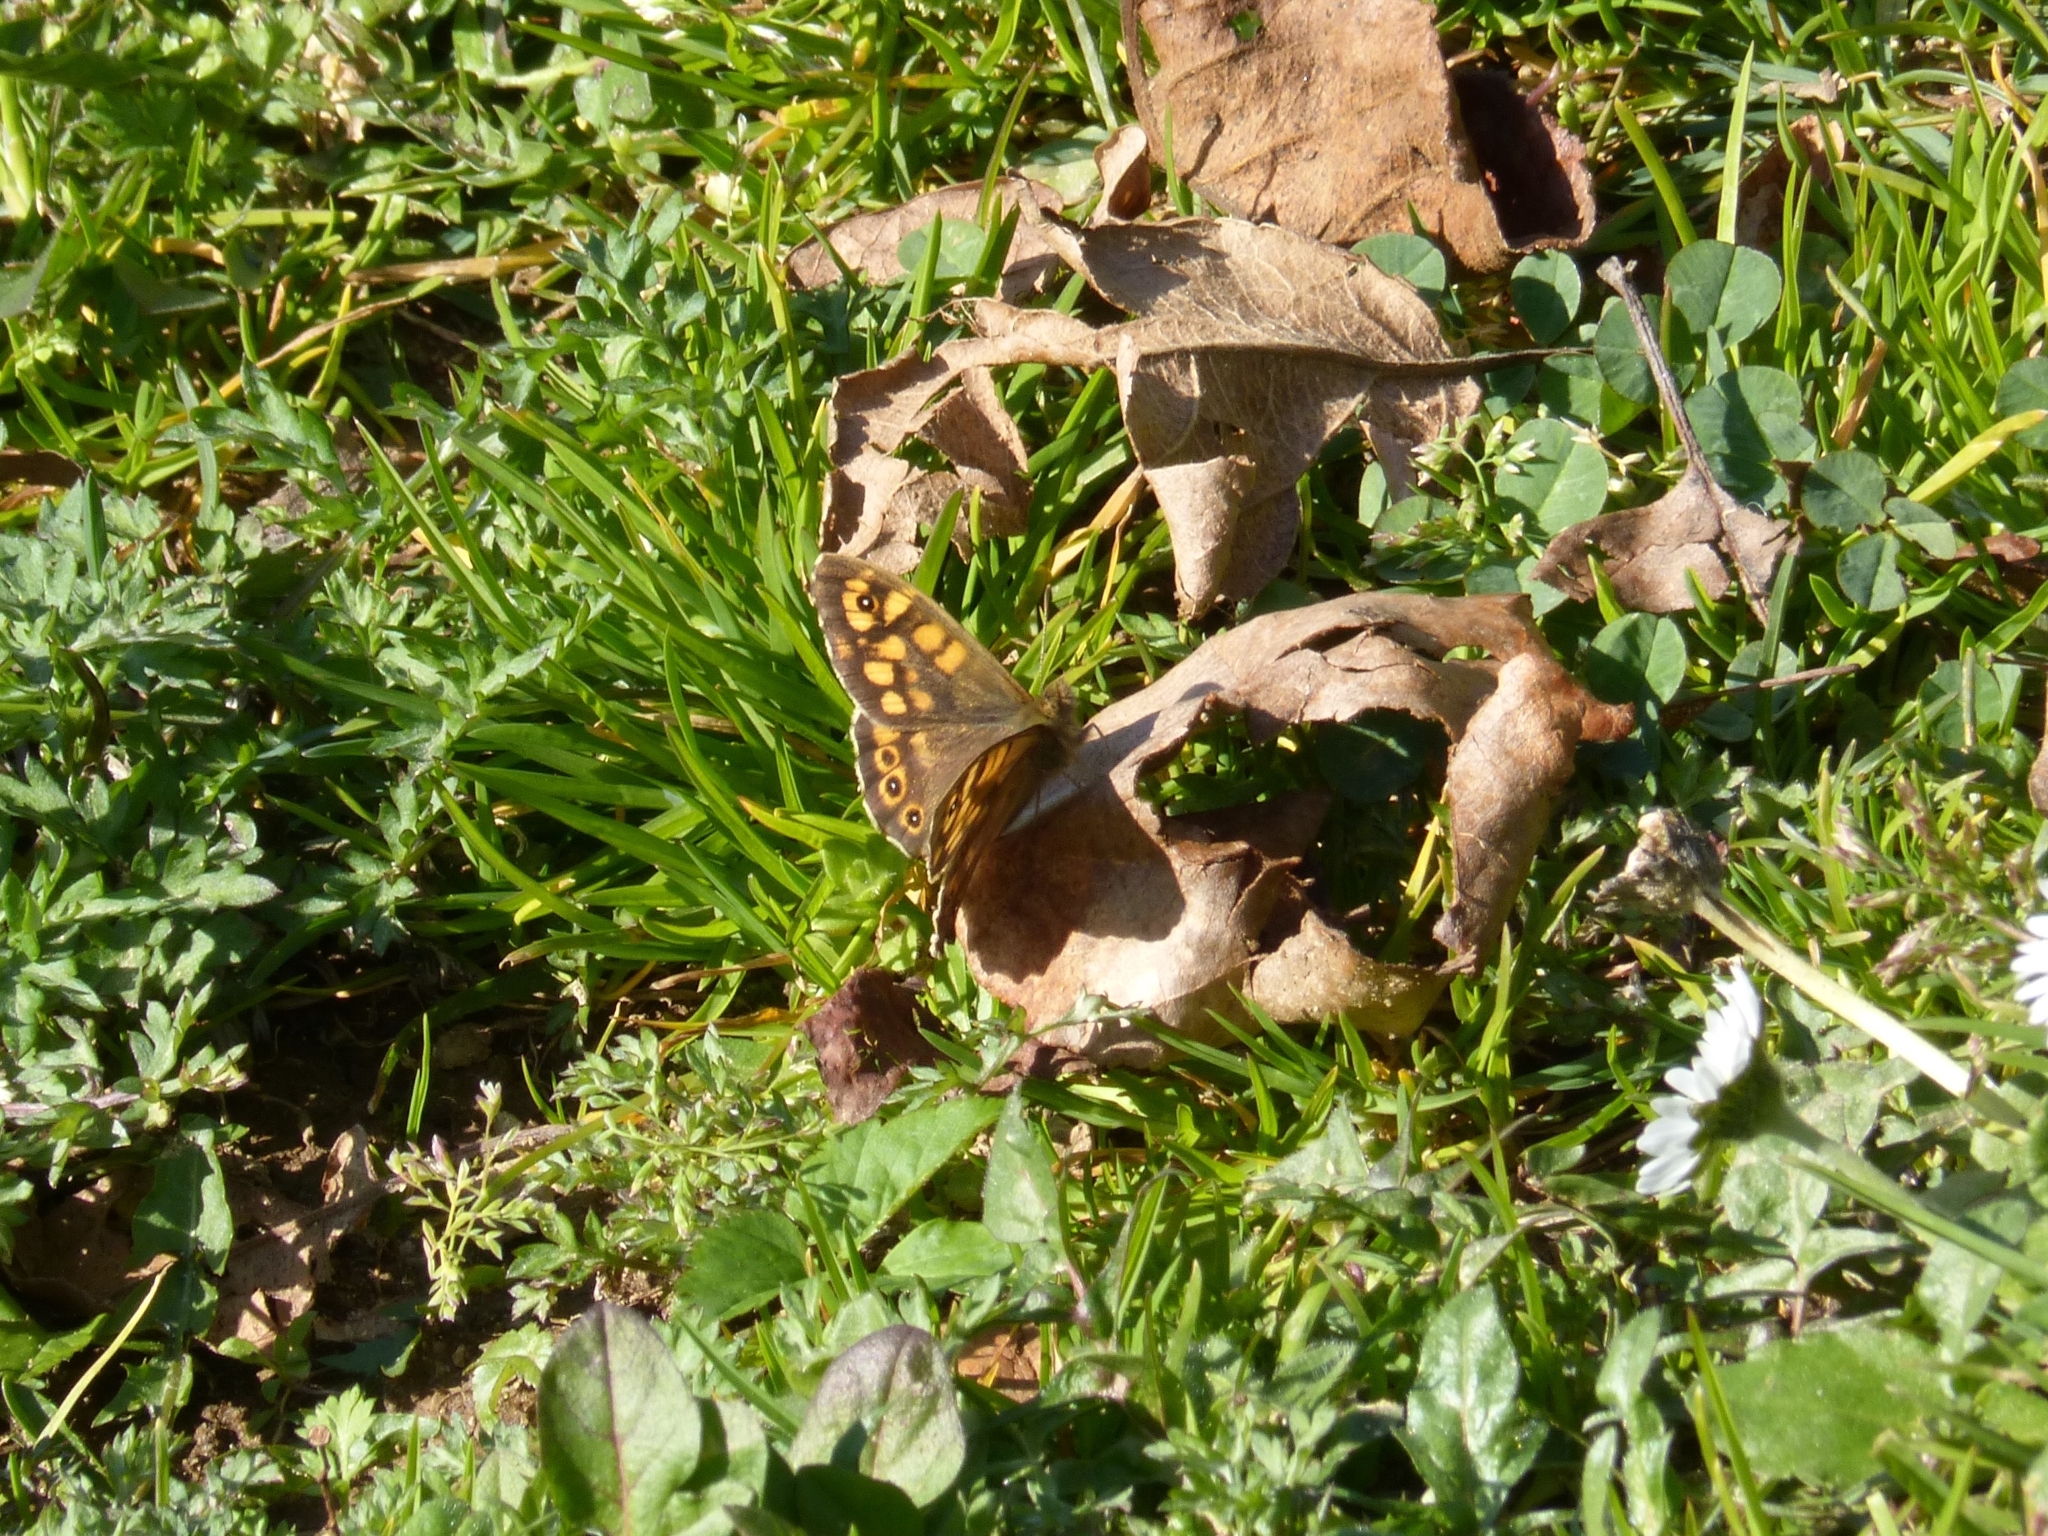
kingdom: Animalia
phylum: Arthropoda
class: Insecta
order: Lepidoptera
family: Nymphalidae
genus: Pararge
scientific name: Pararge aegeria
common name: Speckled wood
